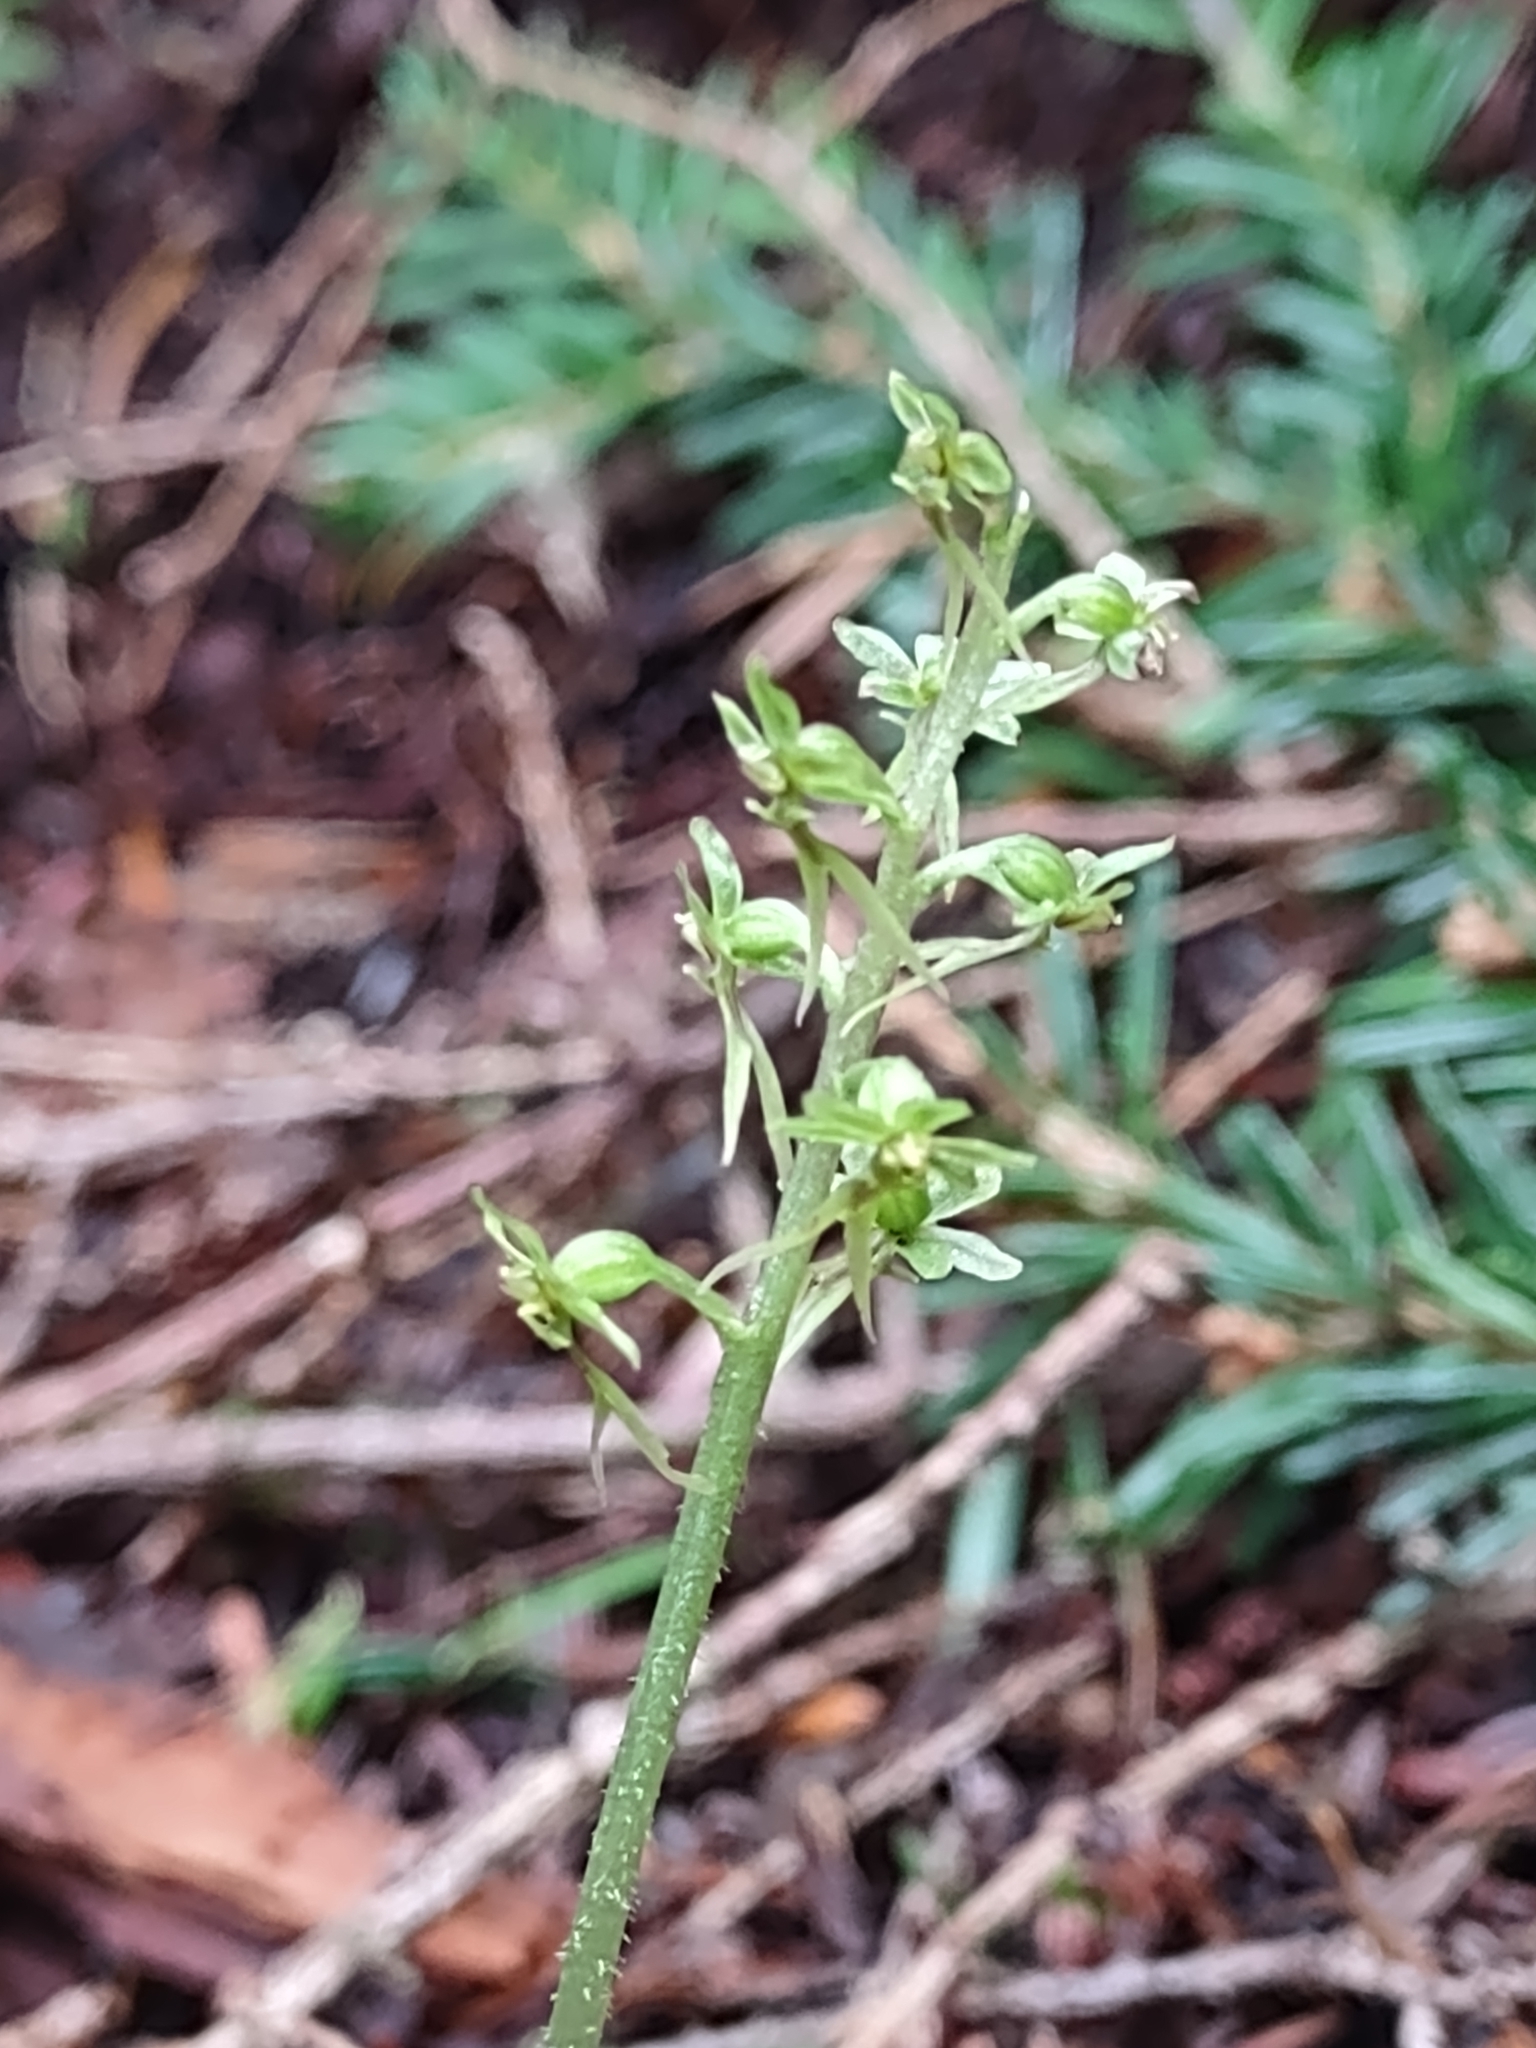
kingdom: Plantae
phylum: Tracheophyta
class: Liliopsida
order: Asparagales
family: Orchidaceae
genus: Neottia
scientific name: Neottia cordata
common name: Lesser twayblade
